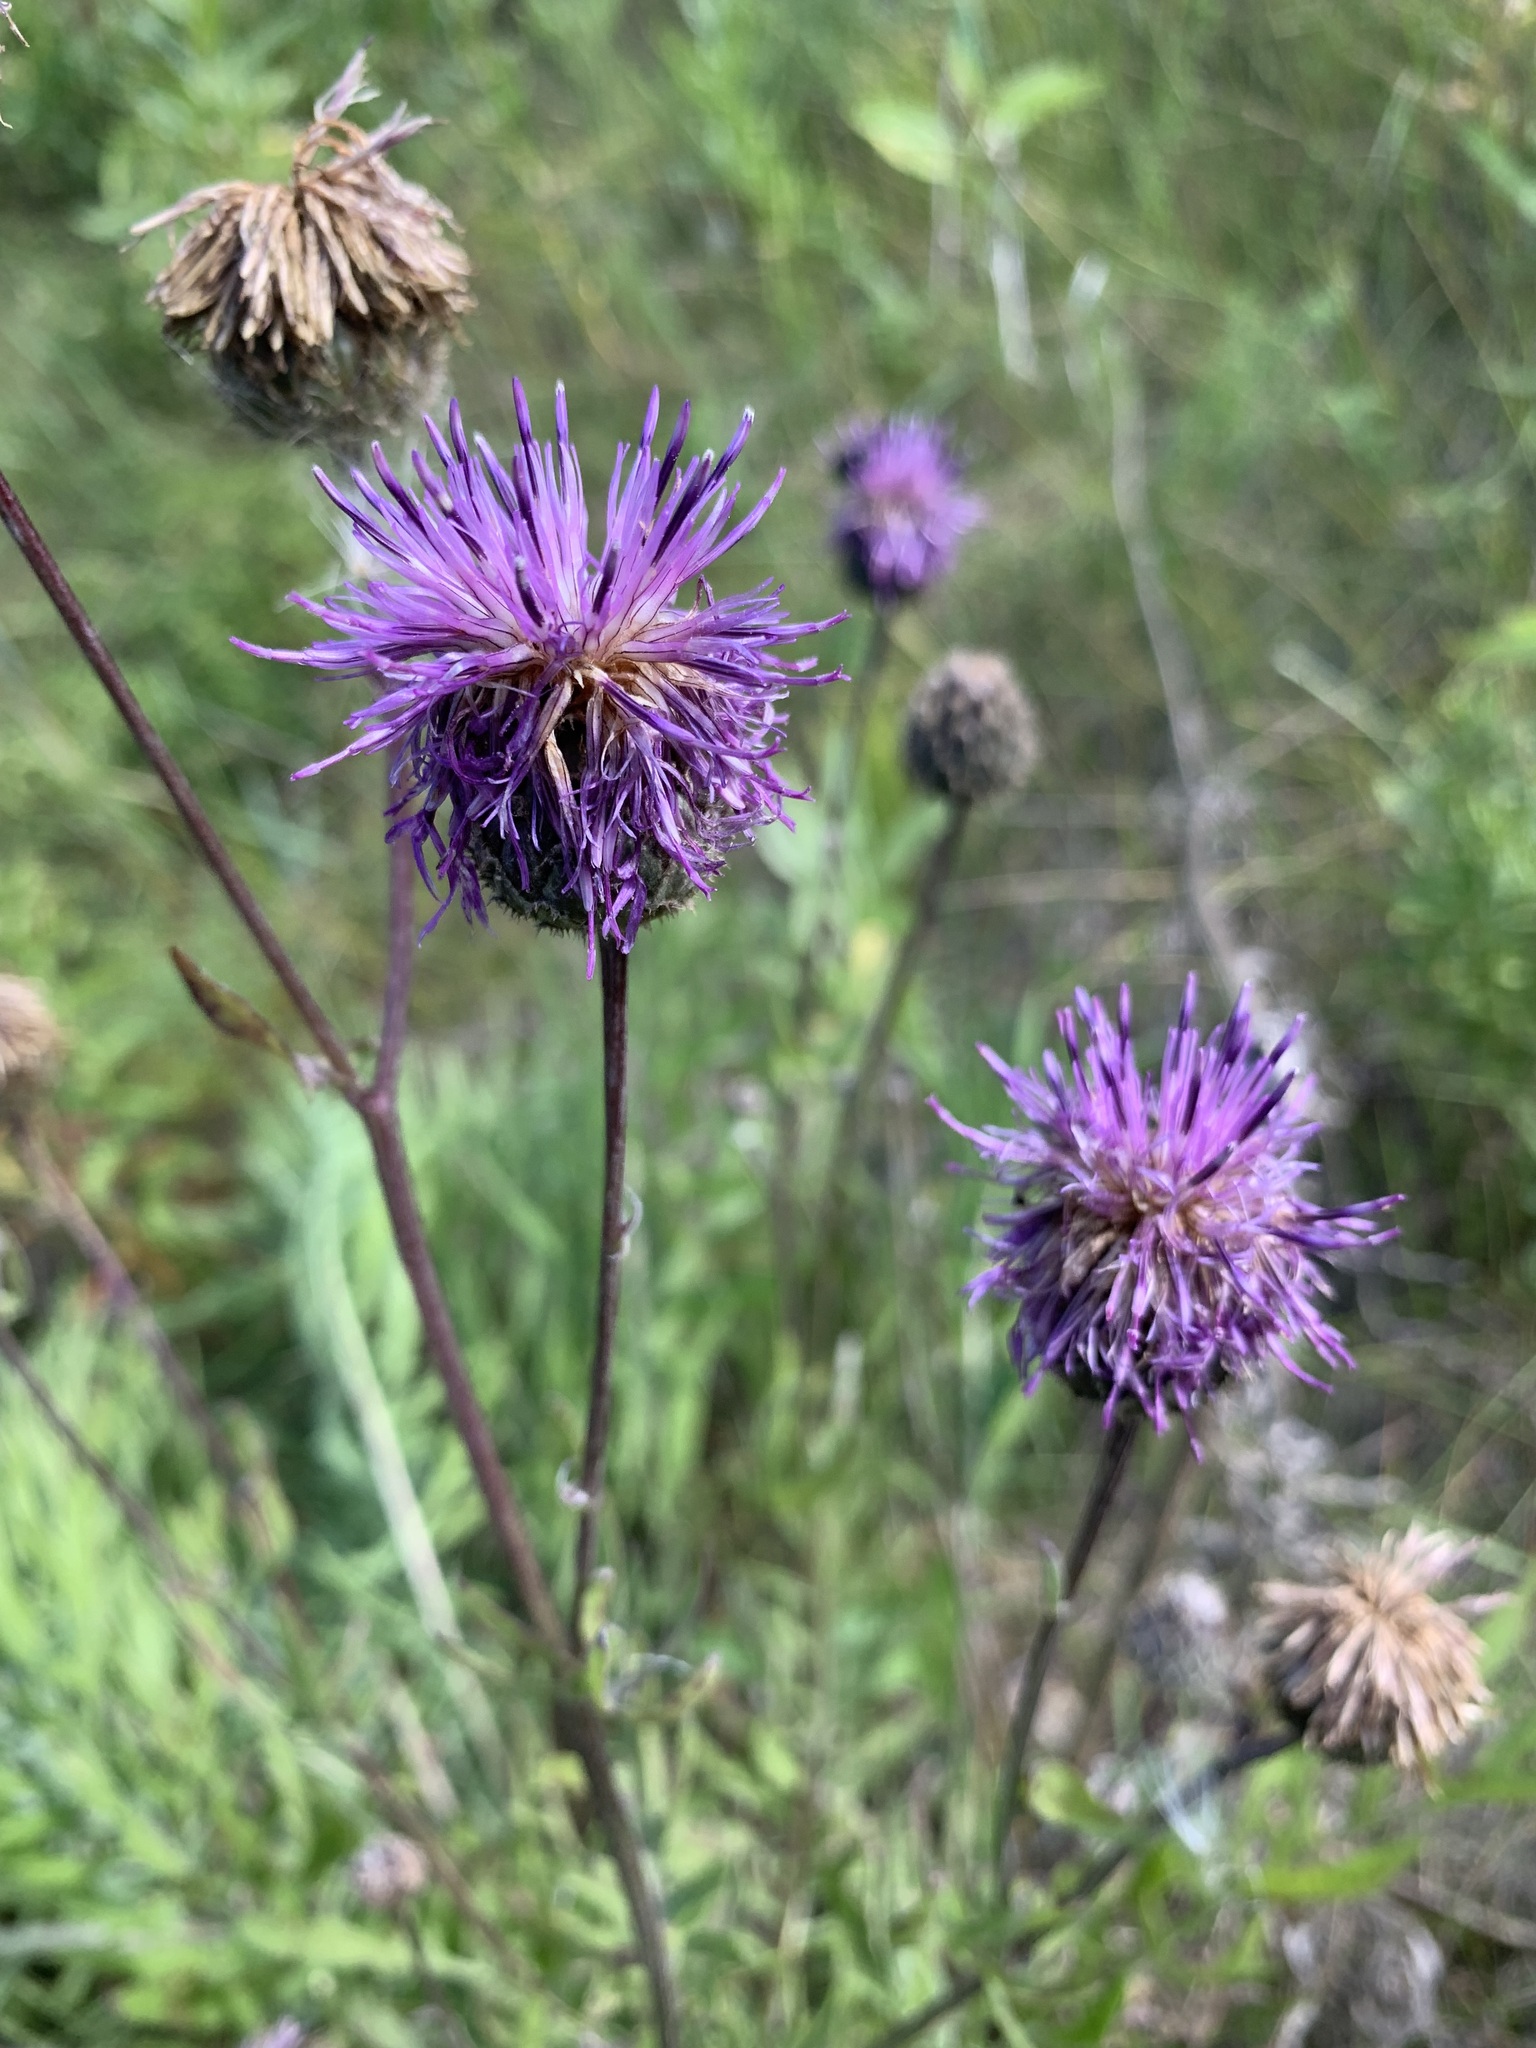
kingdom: Plantae
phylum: Tracheophyta
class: Magnoliopsida
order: Asterales
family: Asteraceae
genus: Centaurea
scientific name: Centaurea scabiosa
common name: Greater knapweed
